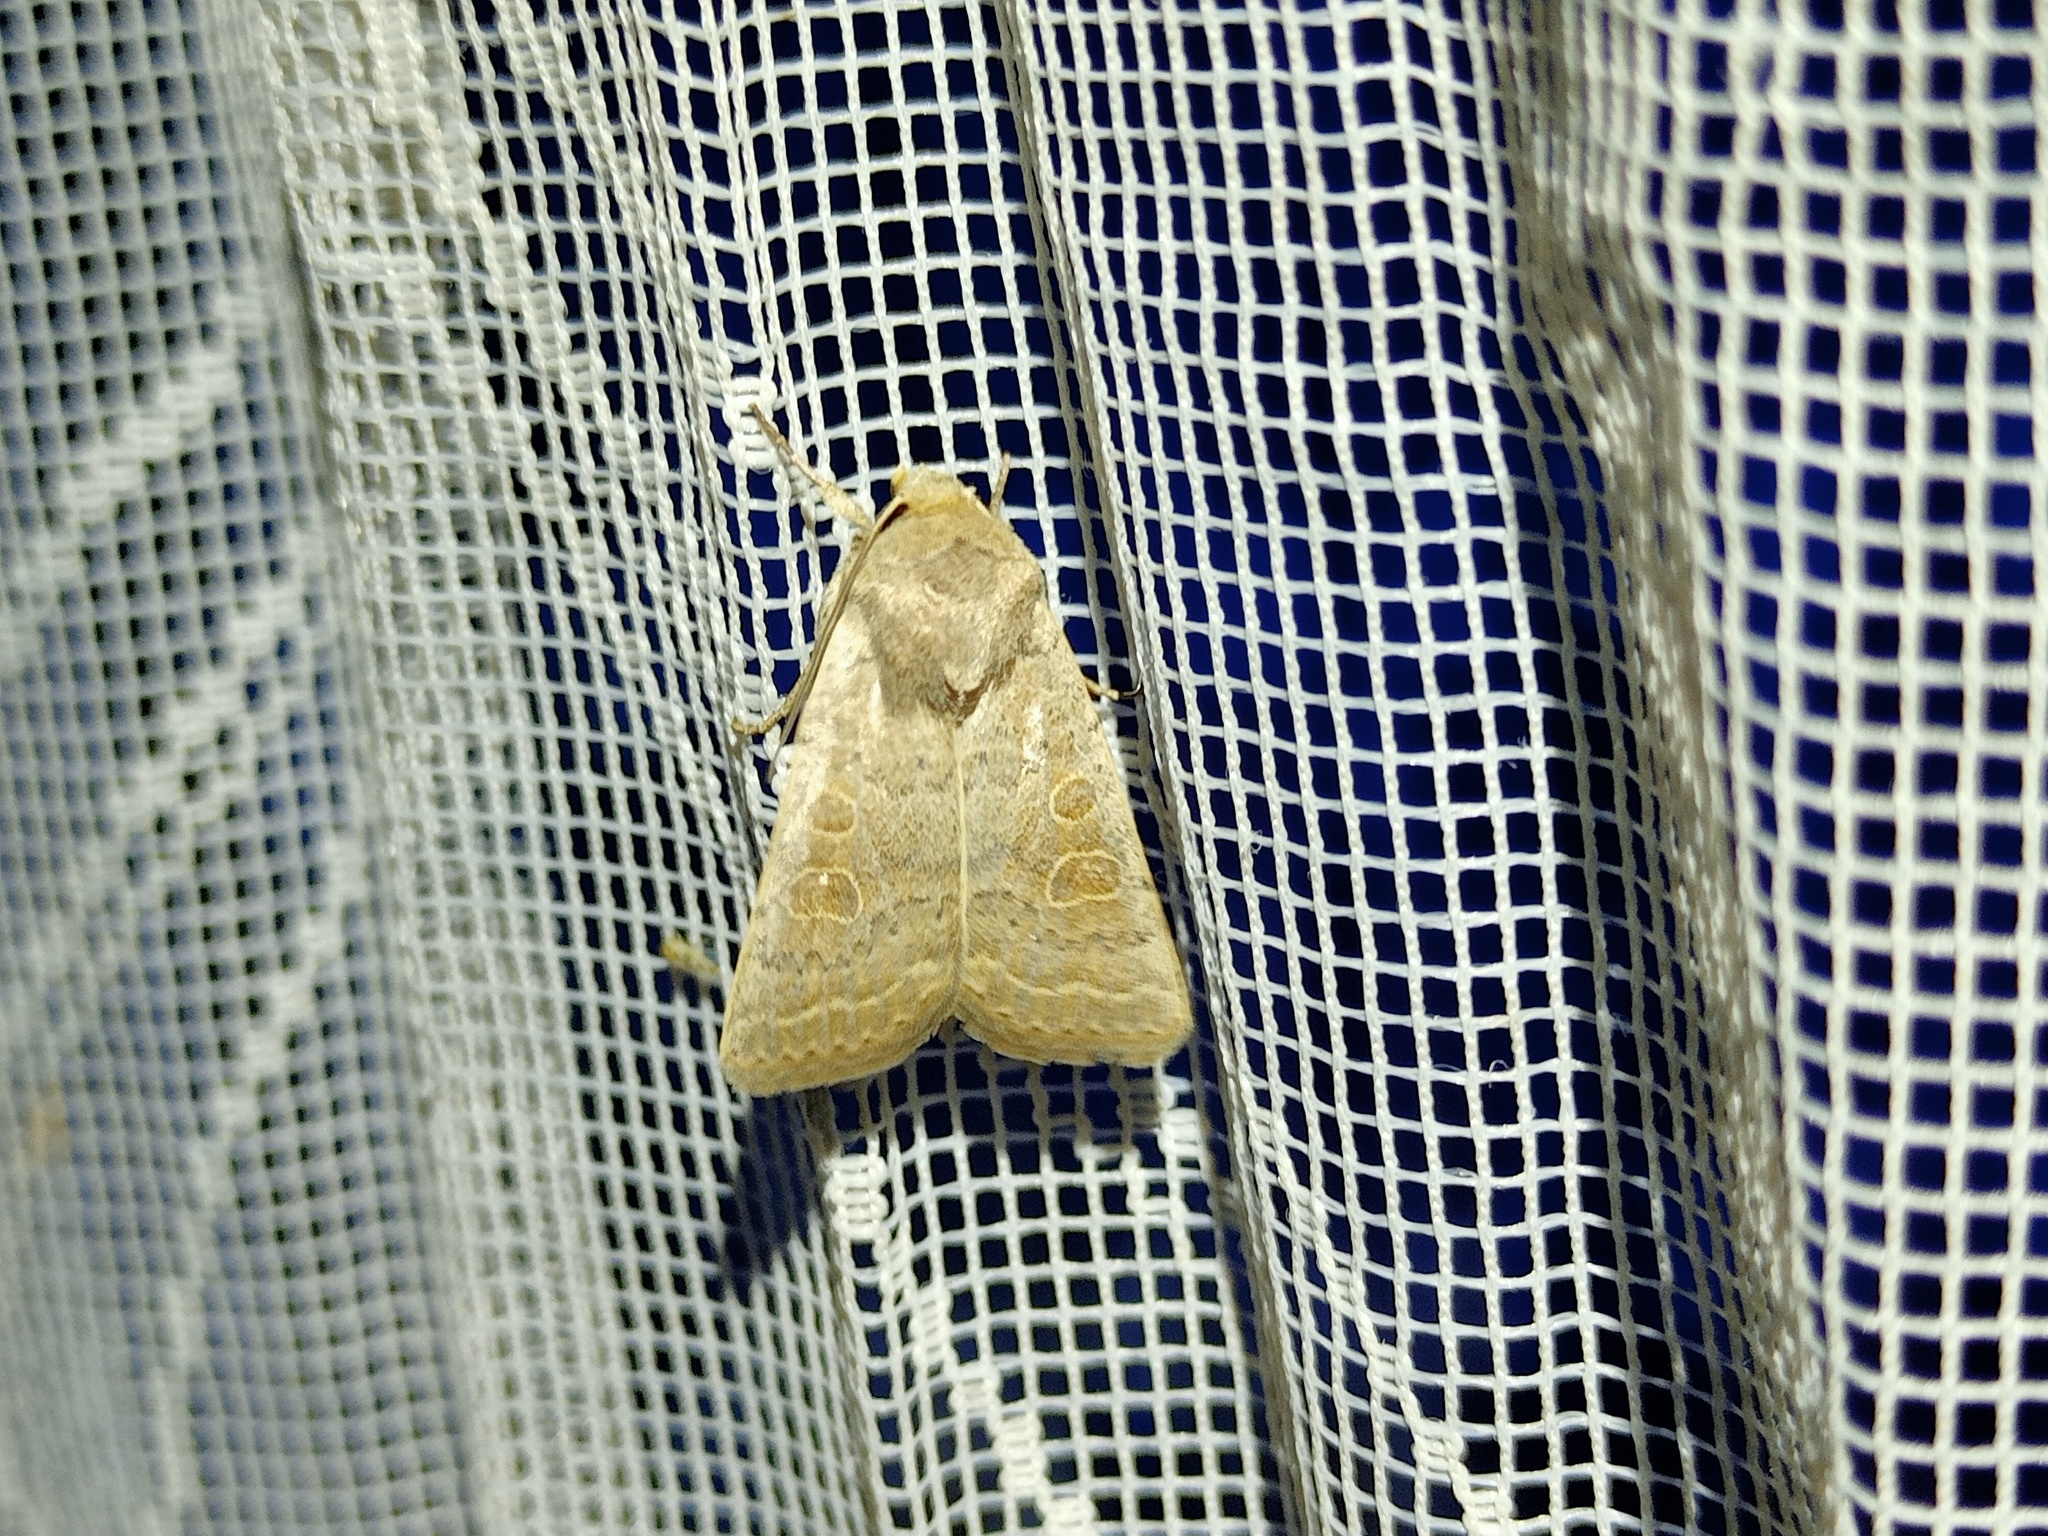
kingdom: Animalia
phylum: Arthropoda
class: Insecta
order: Lepidoptera
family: Noctuidae
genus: Hoplodrina
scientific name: Hoplodrina ambigua
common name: Vine's rustic
